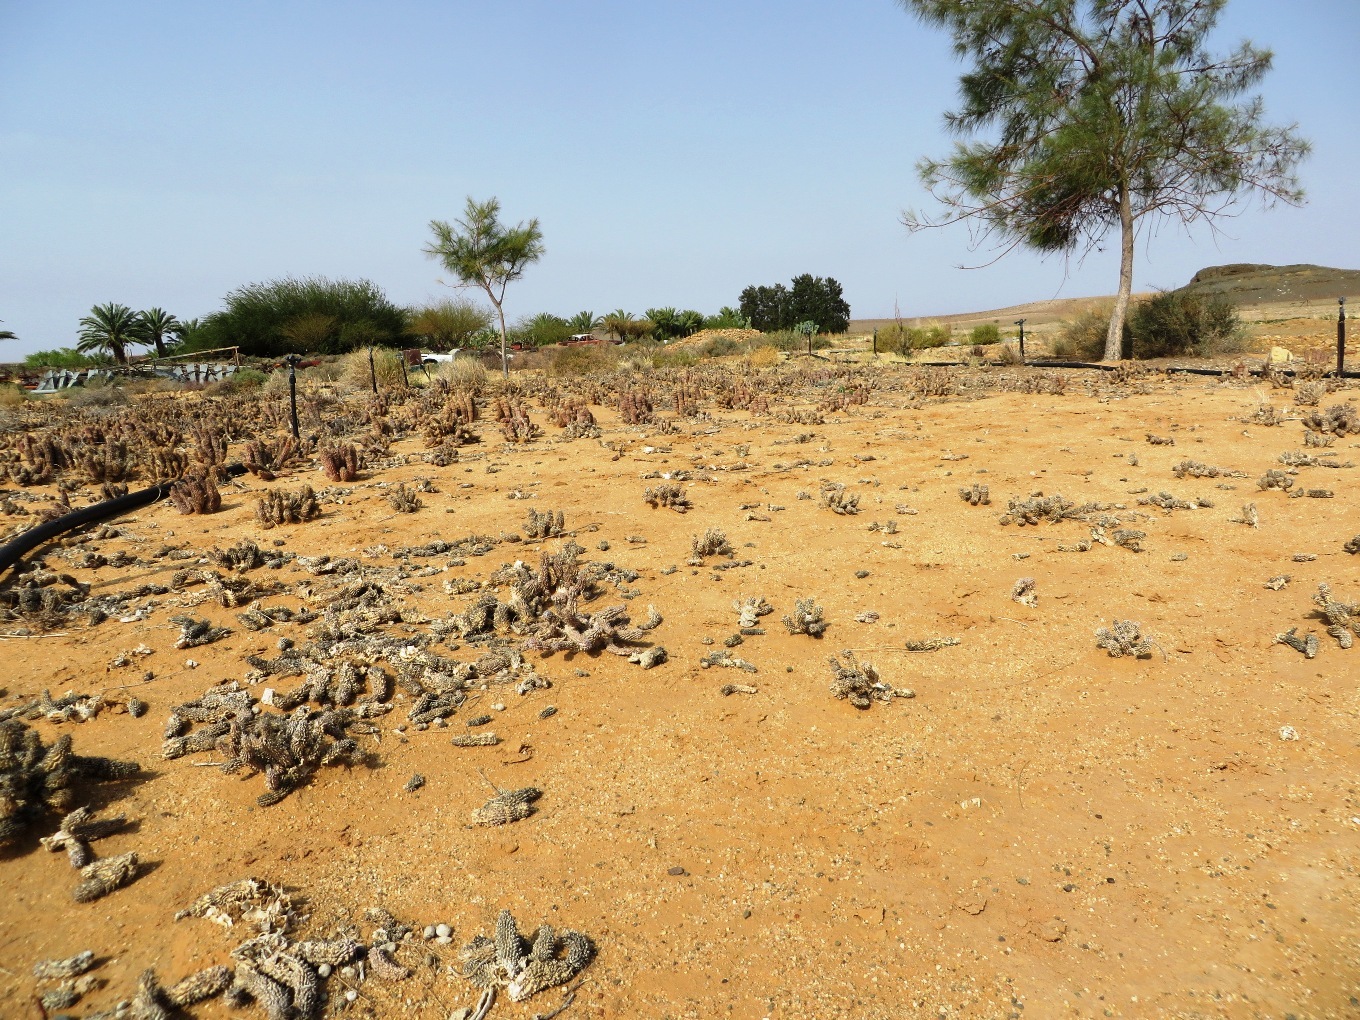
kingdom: Plantae
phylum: Tracheophyta
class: Magnoliopsida
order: Gentianales
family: Apocynaceae
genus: Hoodia
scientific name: Hoodia gordonii
